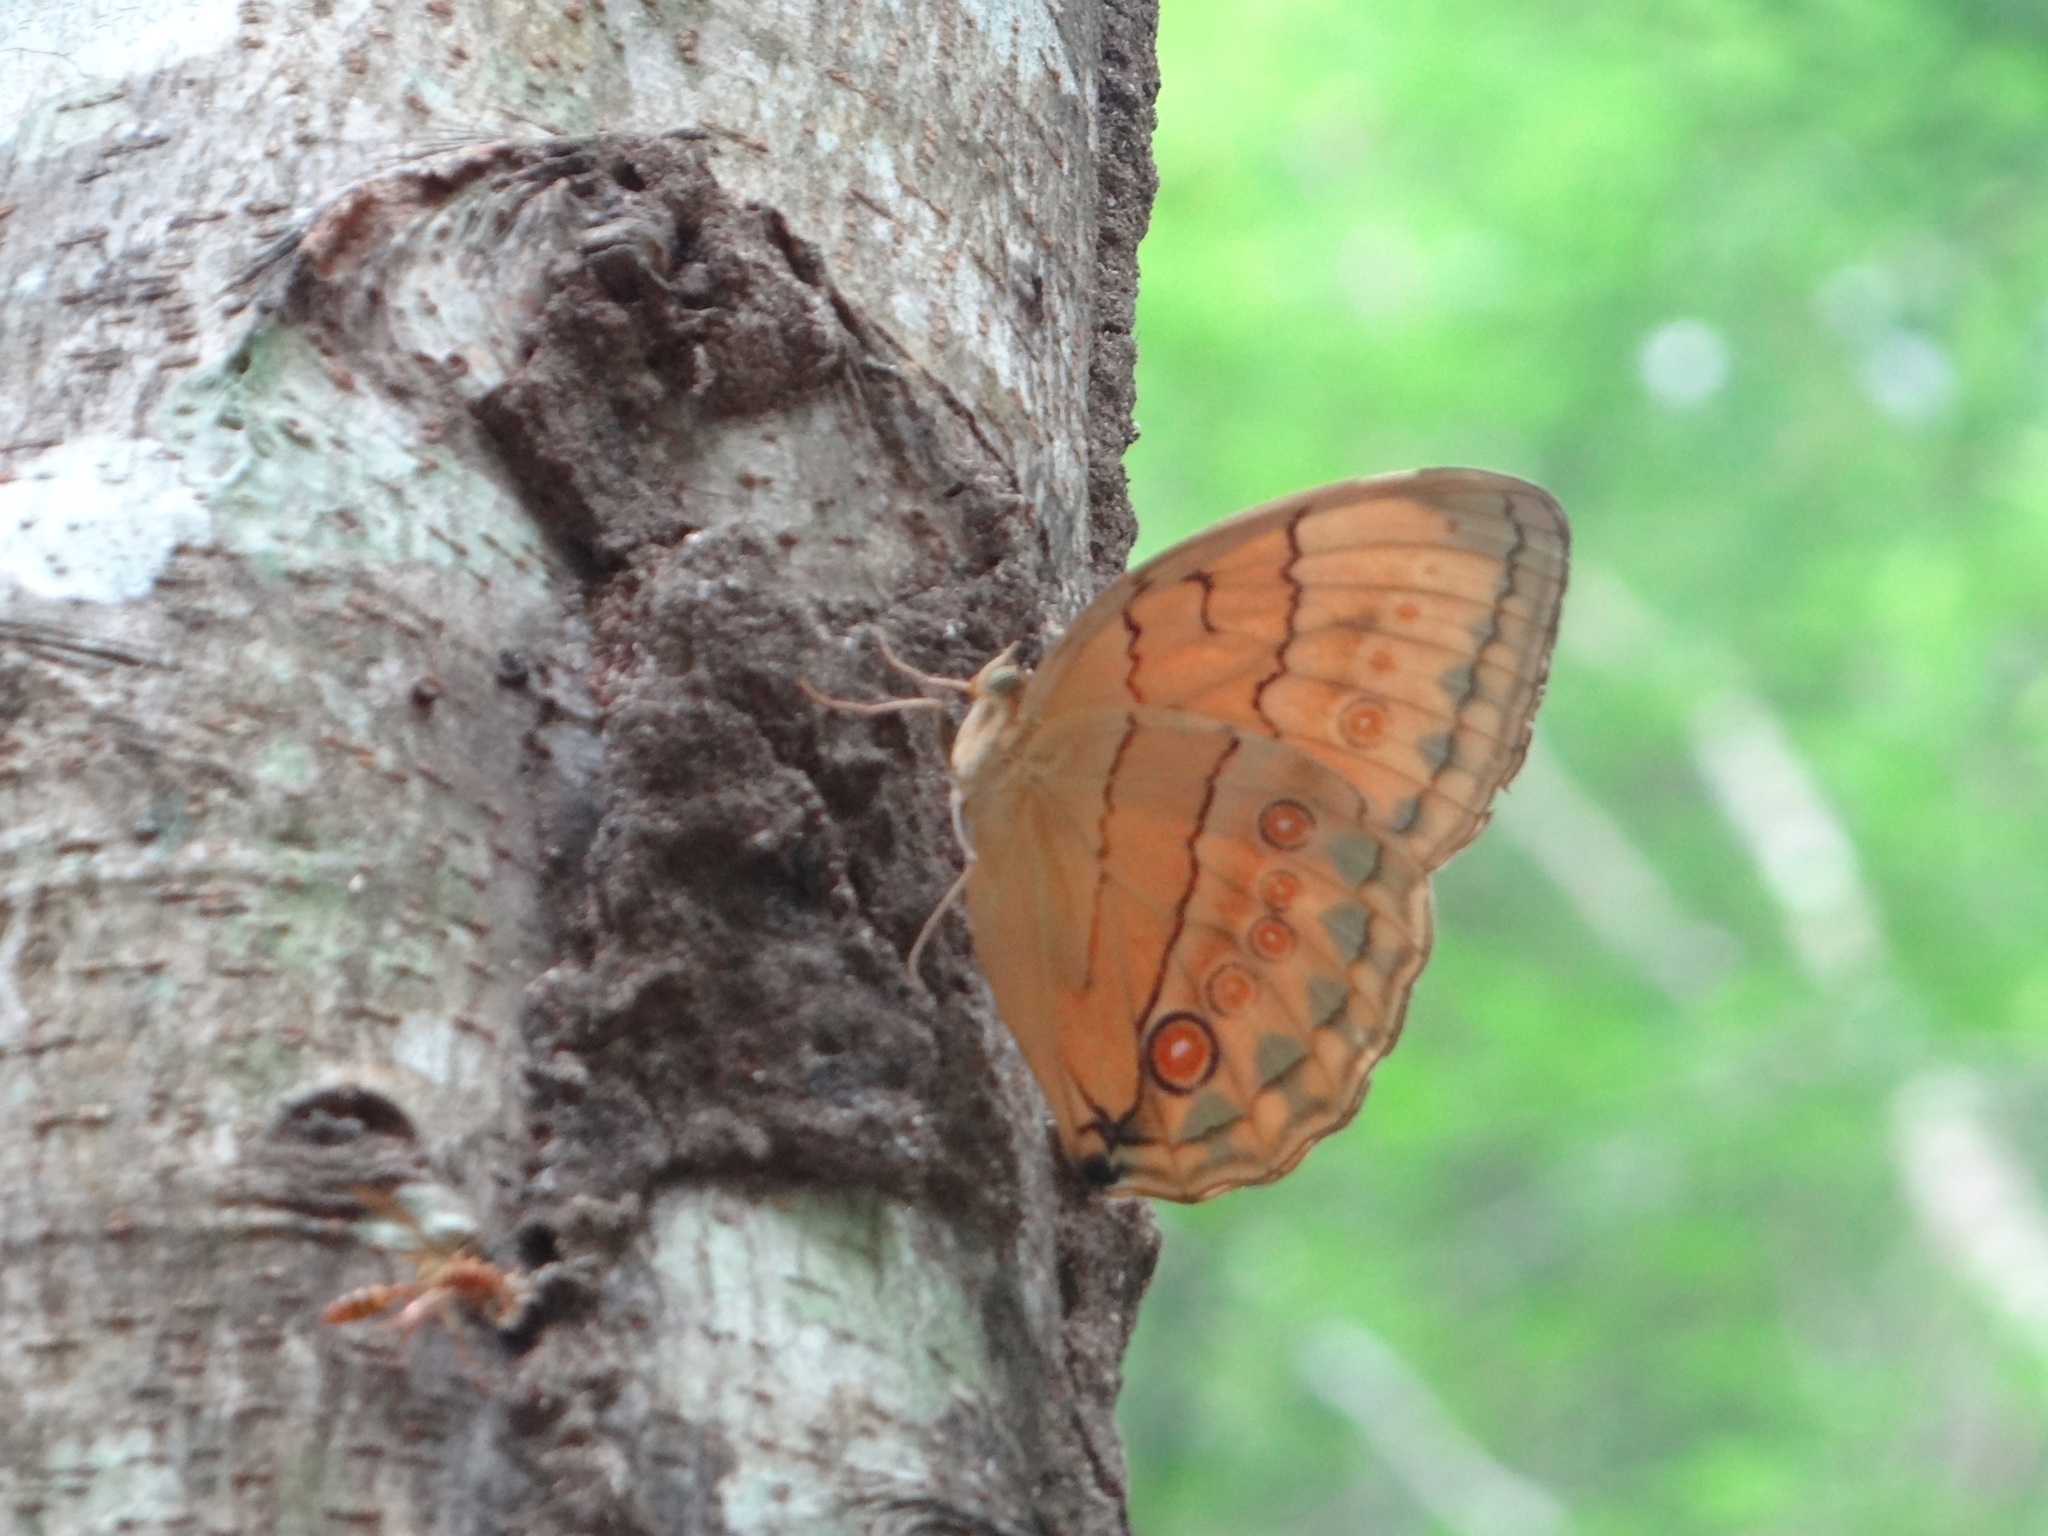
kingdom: Animalia
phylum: Arthropoda
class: Insecta
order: Lepidoptera
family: Nymphalidae
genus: Stichophthalma
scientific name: Stichophthalma howqua
